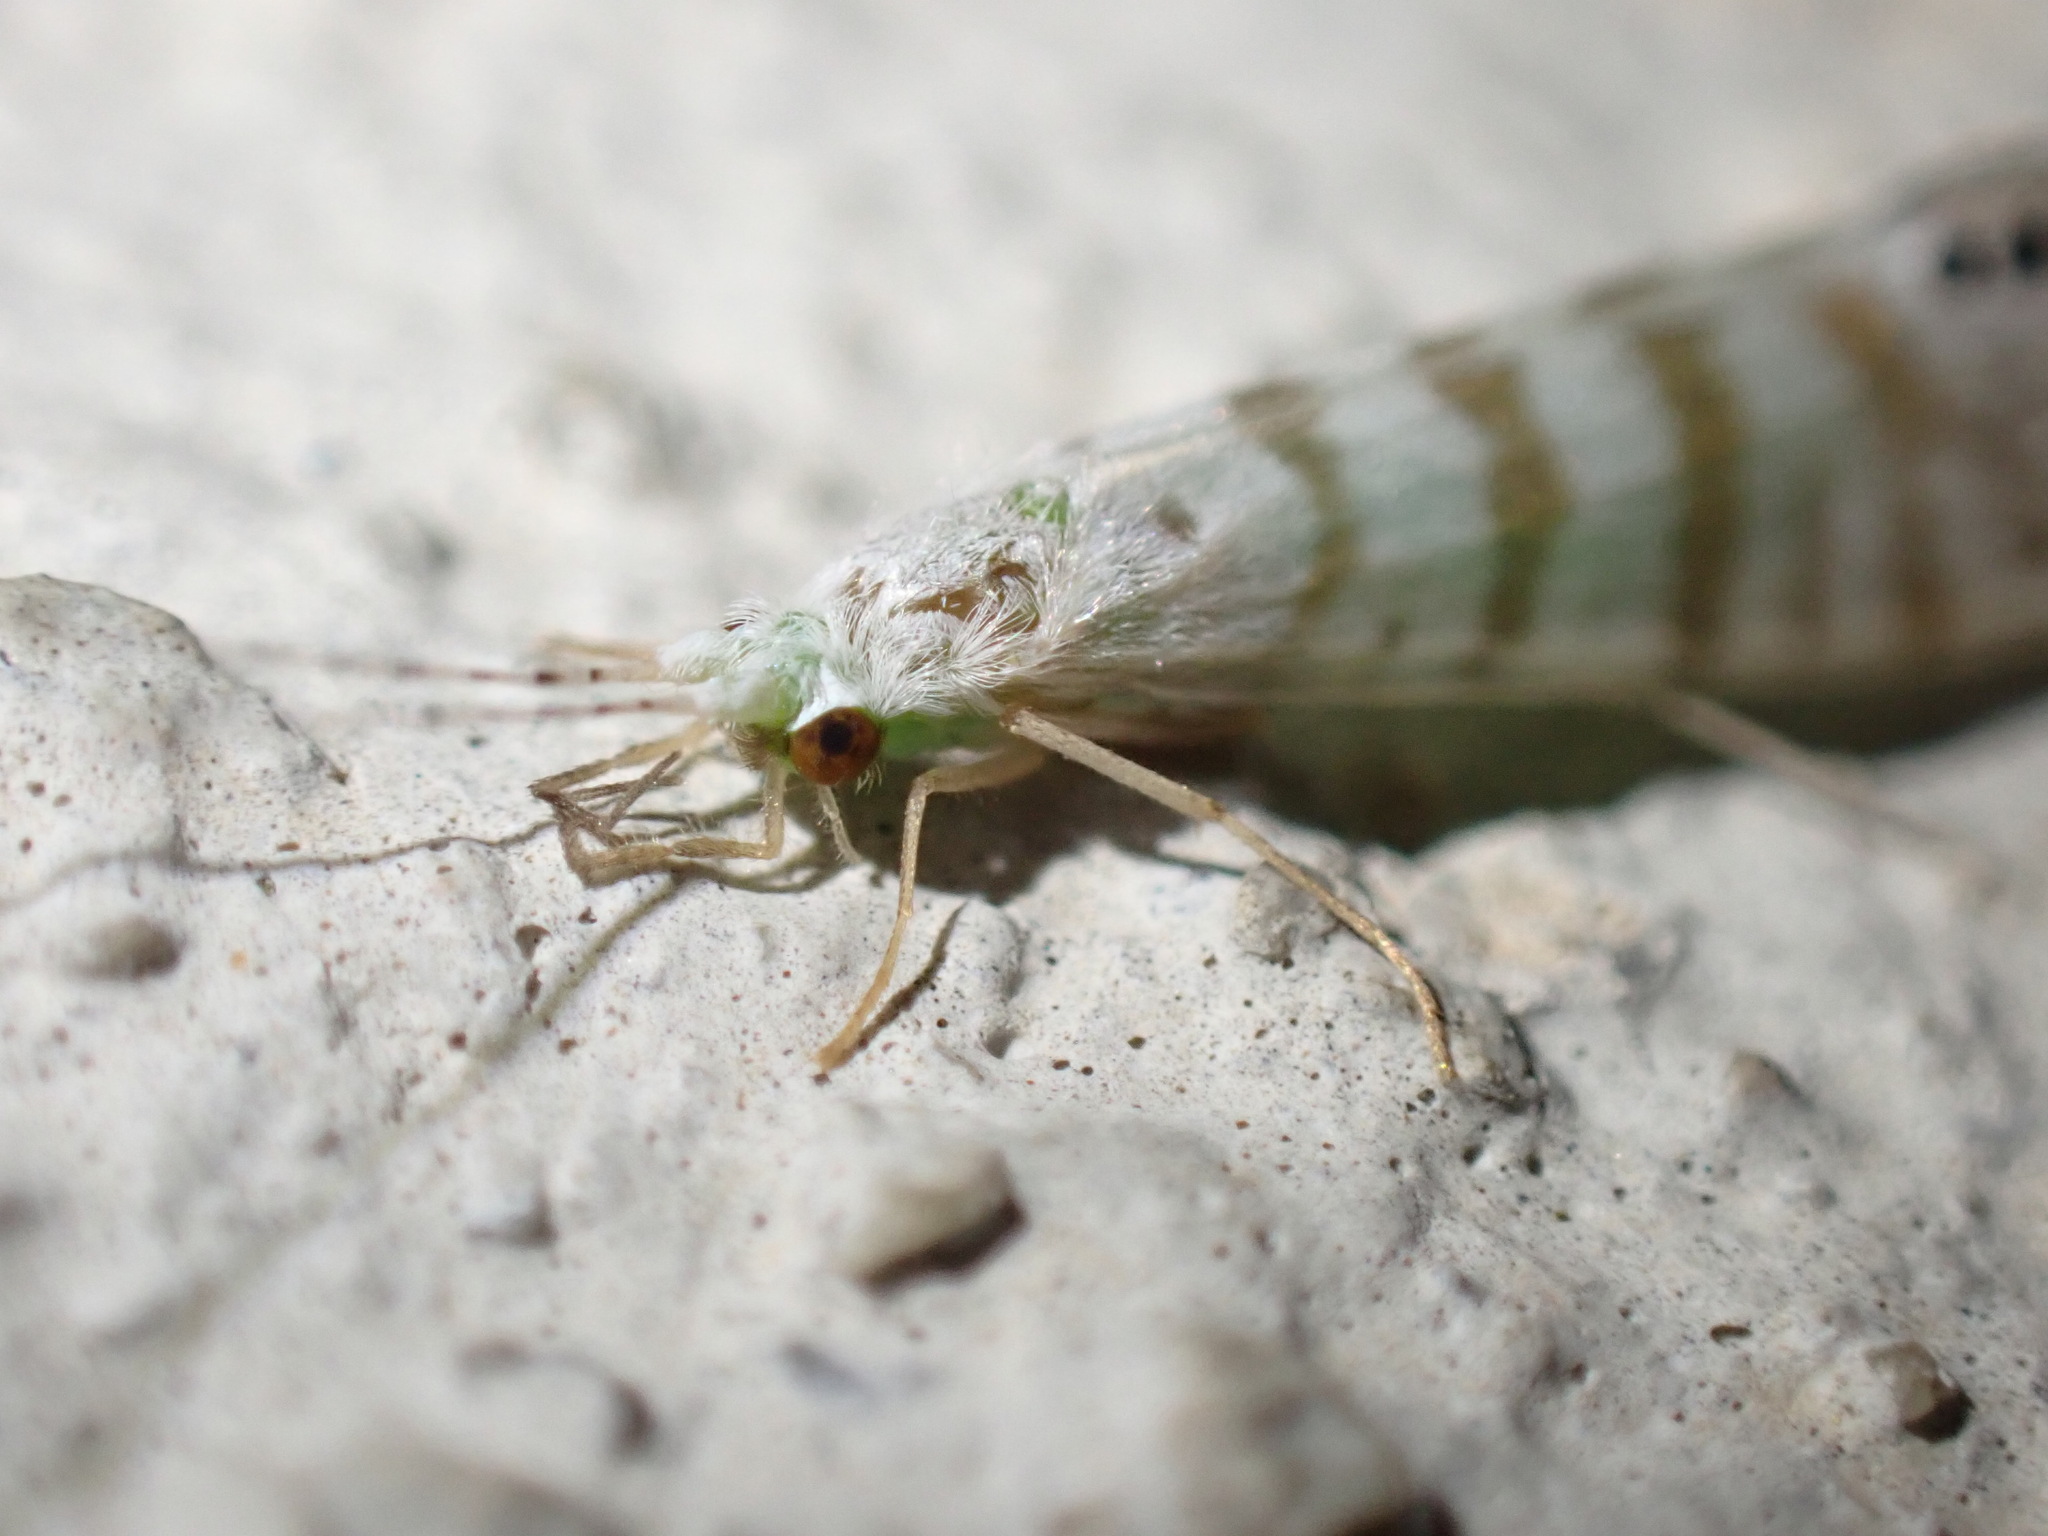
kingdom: Animalia
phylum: Arthropoda
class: Insecta
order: Trichoptera
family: Leptoceridae
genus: Nectopsyche
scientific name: Nectopsyche exquisita
